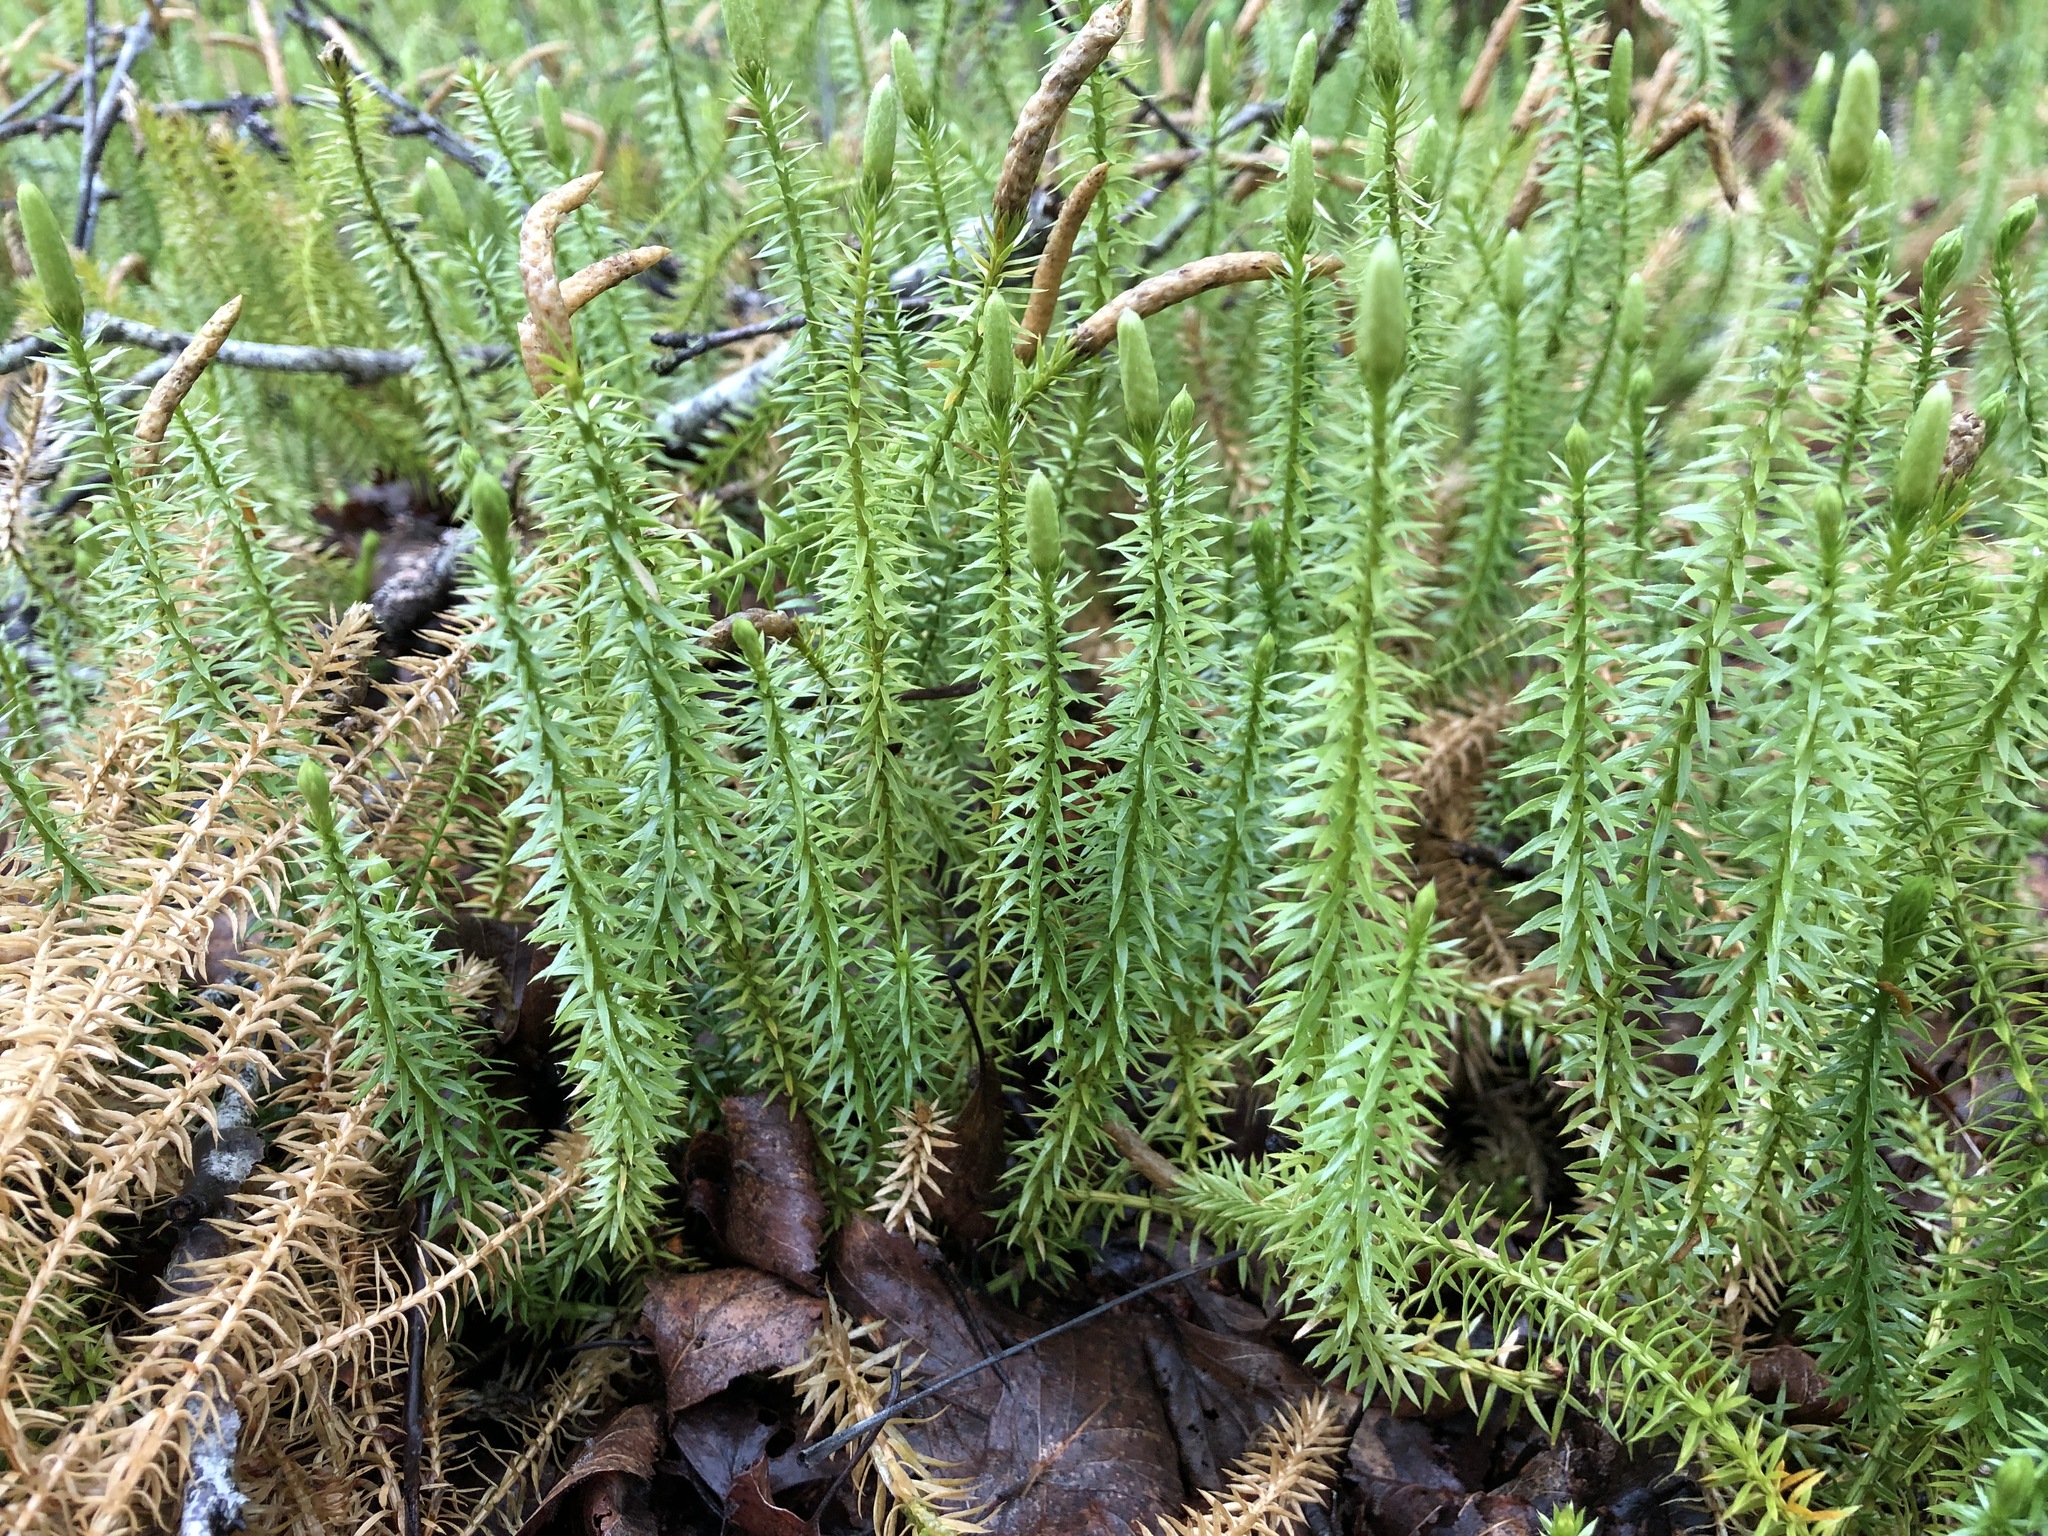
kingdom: Plantae
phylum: Tracheophyta
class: Lycopodiopsida
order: Lycopodiales
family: Lycopodiaceae
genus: Spinulum
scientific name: Spinulum annotinum
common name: Interrupted club-moss
